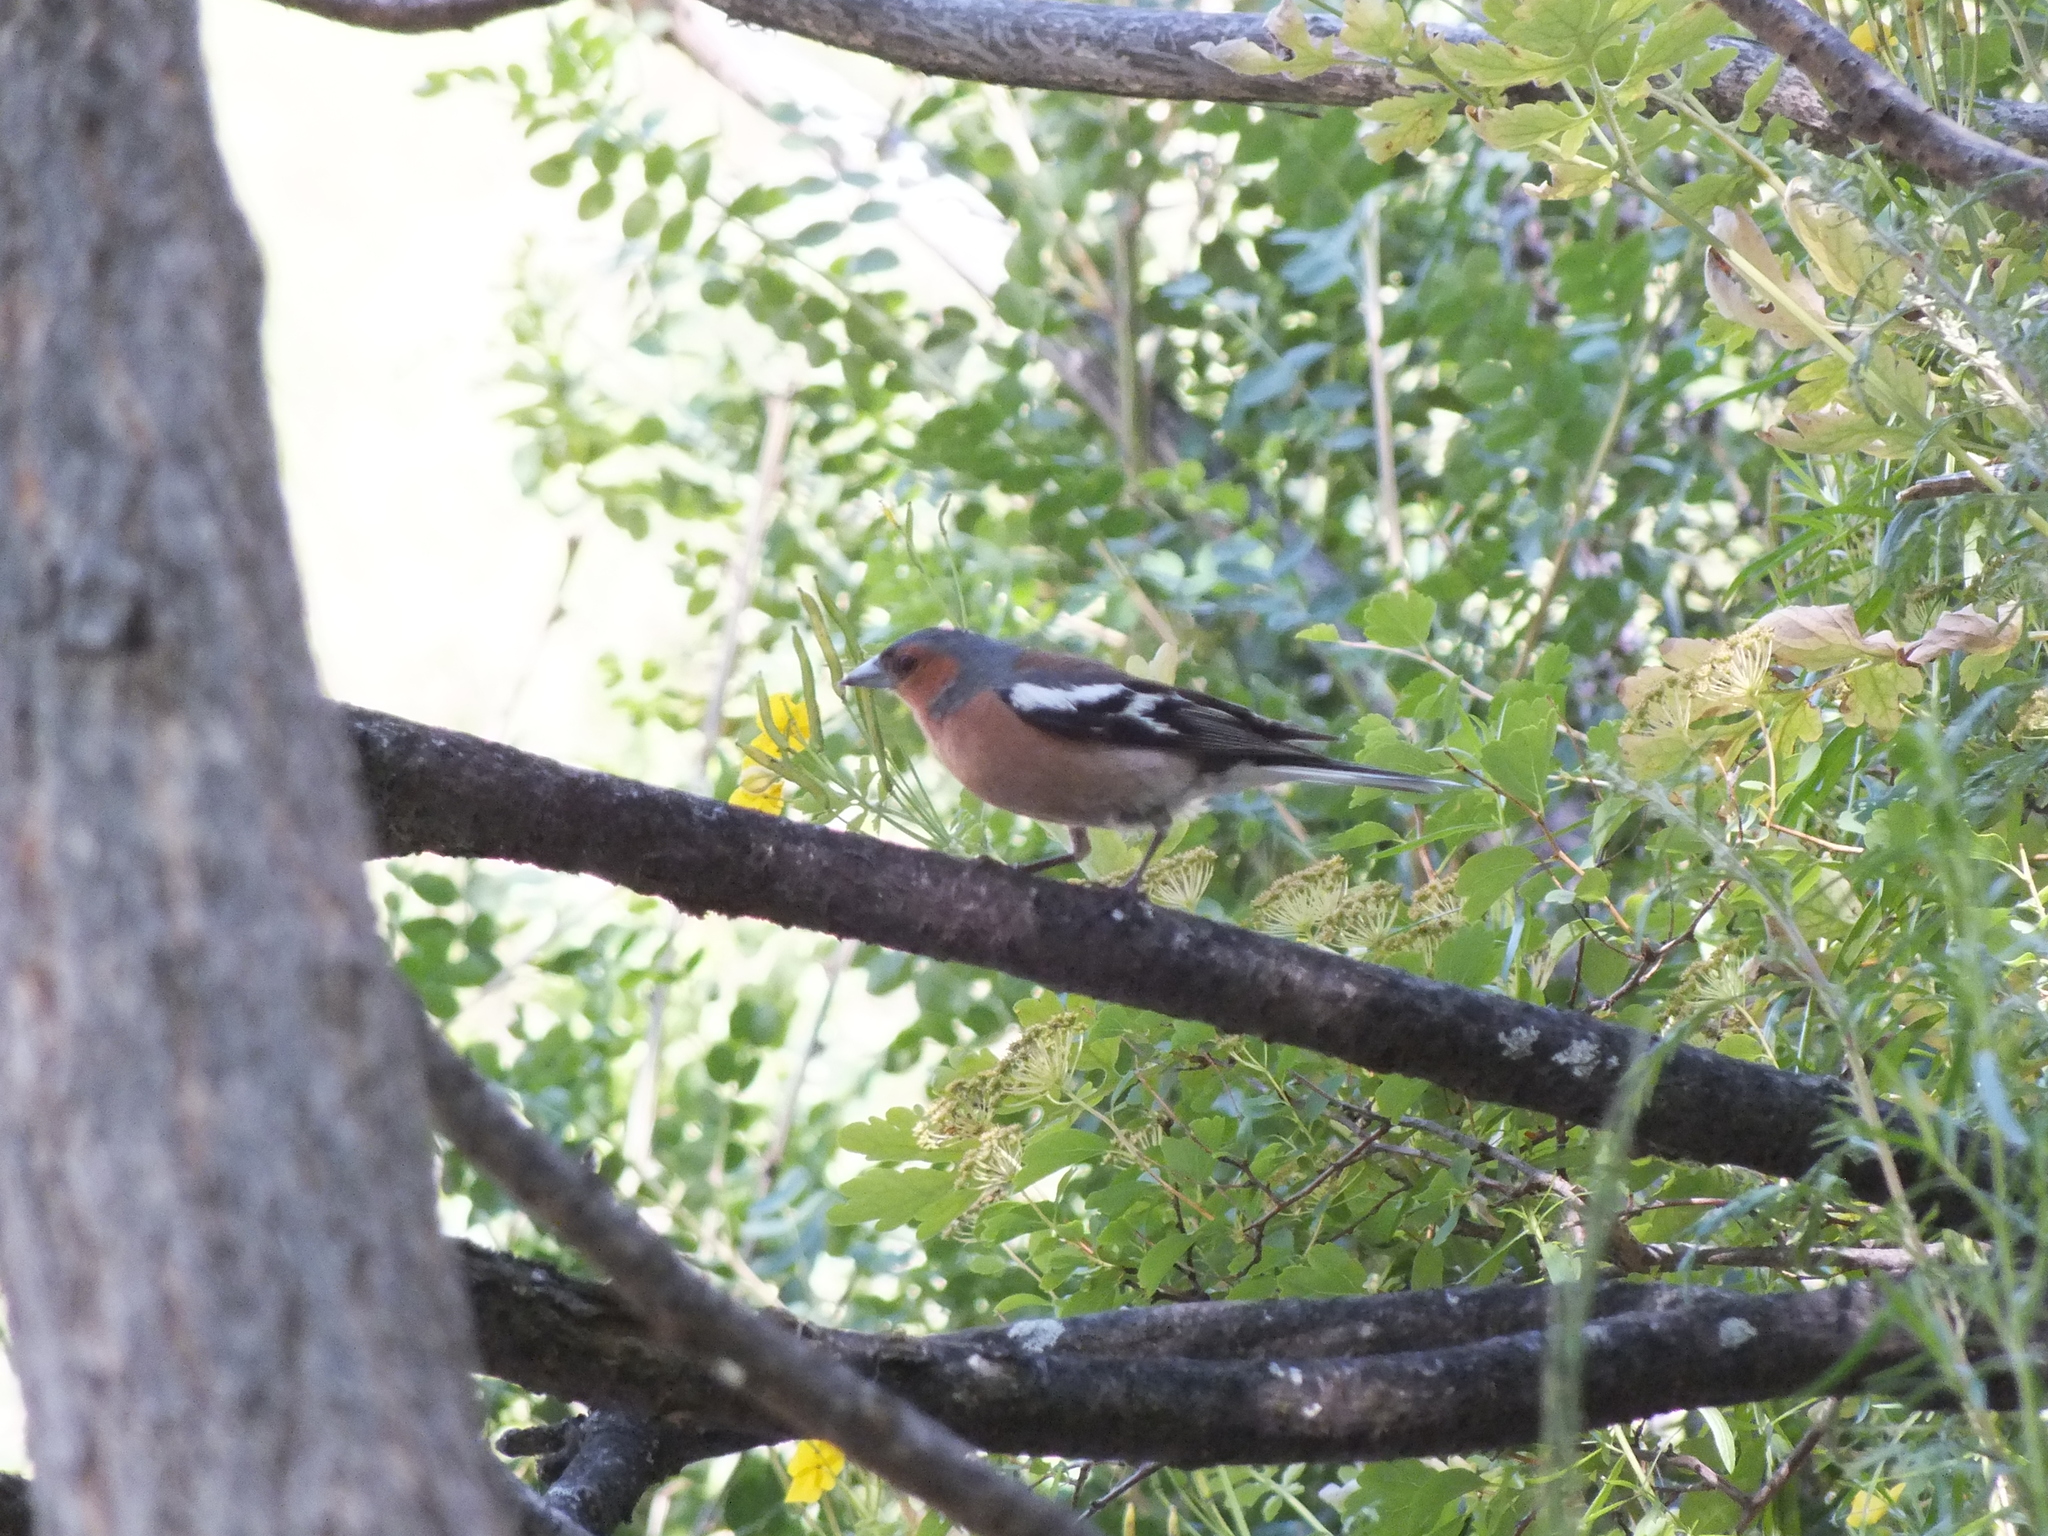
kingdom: Animalia
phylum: Chordata
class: Aves
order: Passeriformes
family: Fringillidae
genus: Fringilla
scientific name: Fringilla coelebs
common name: Common chaffinch
